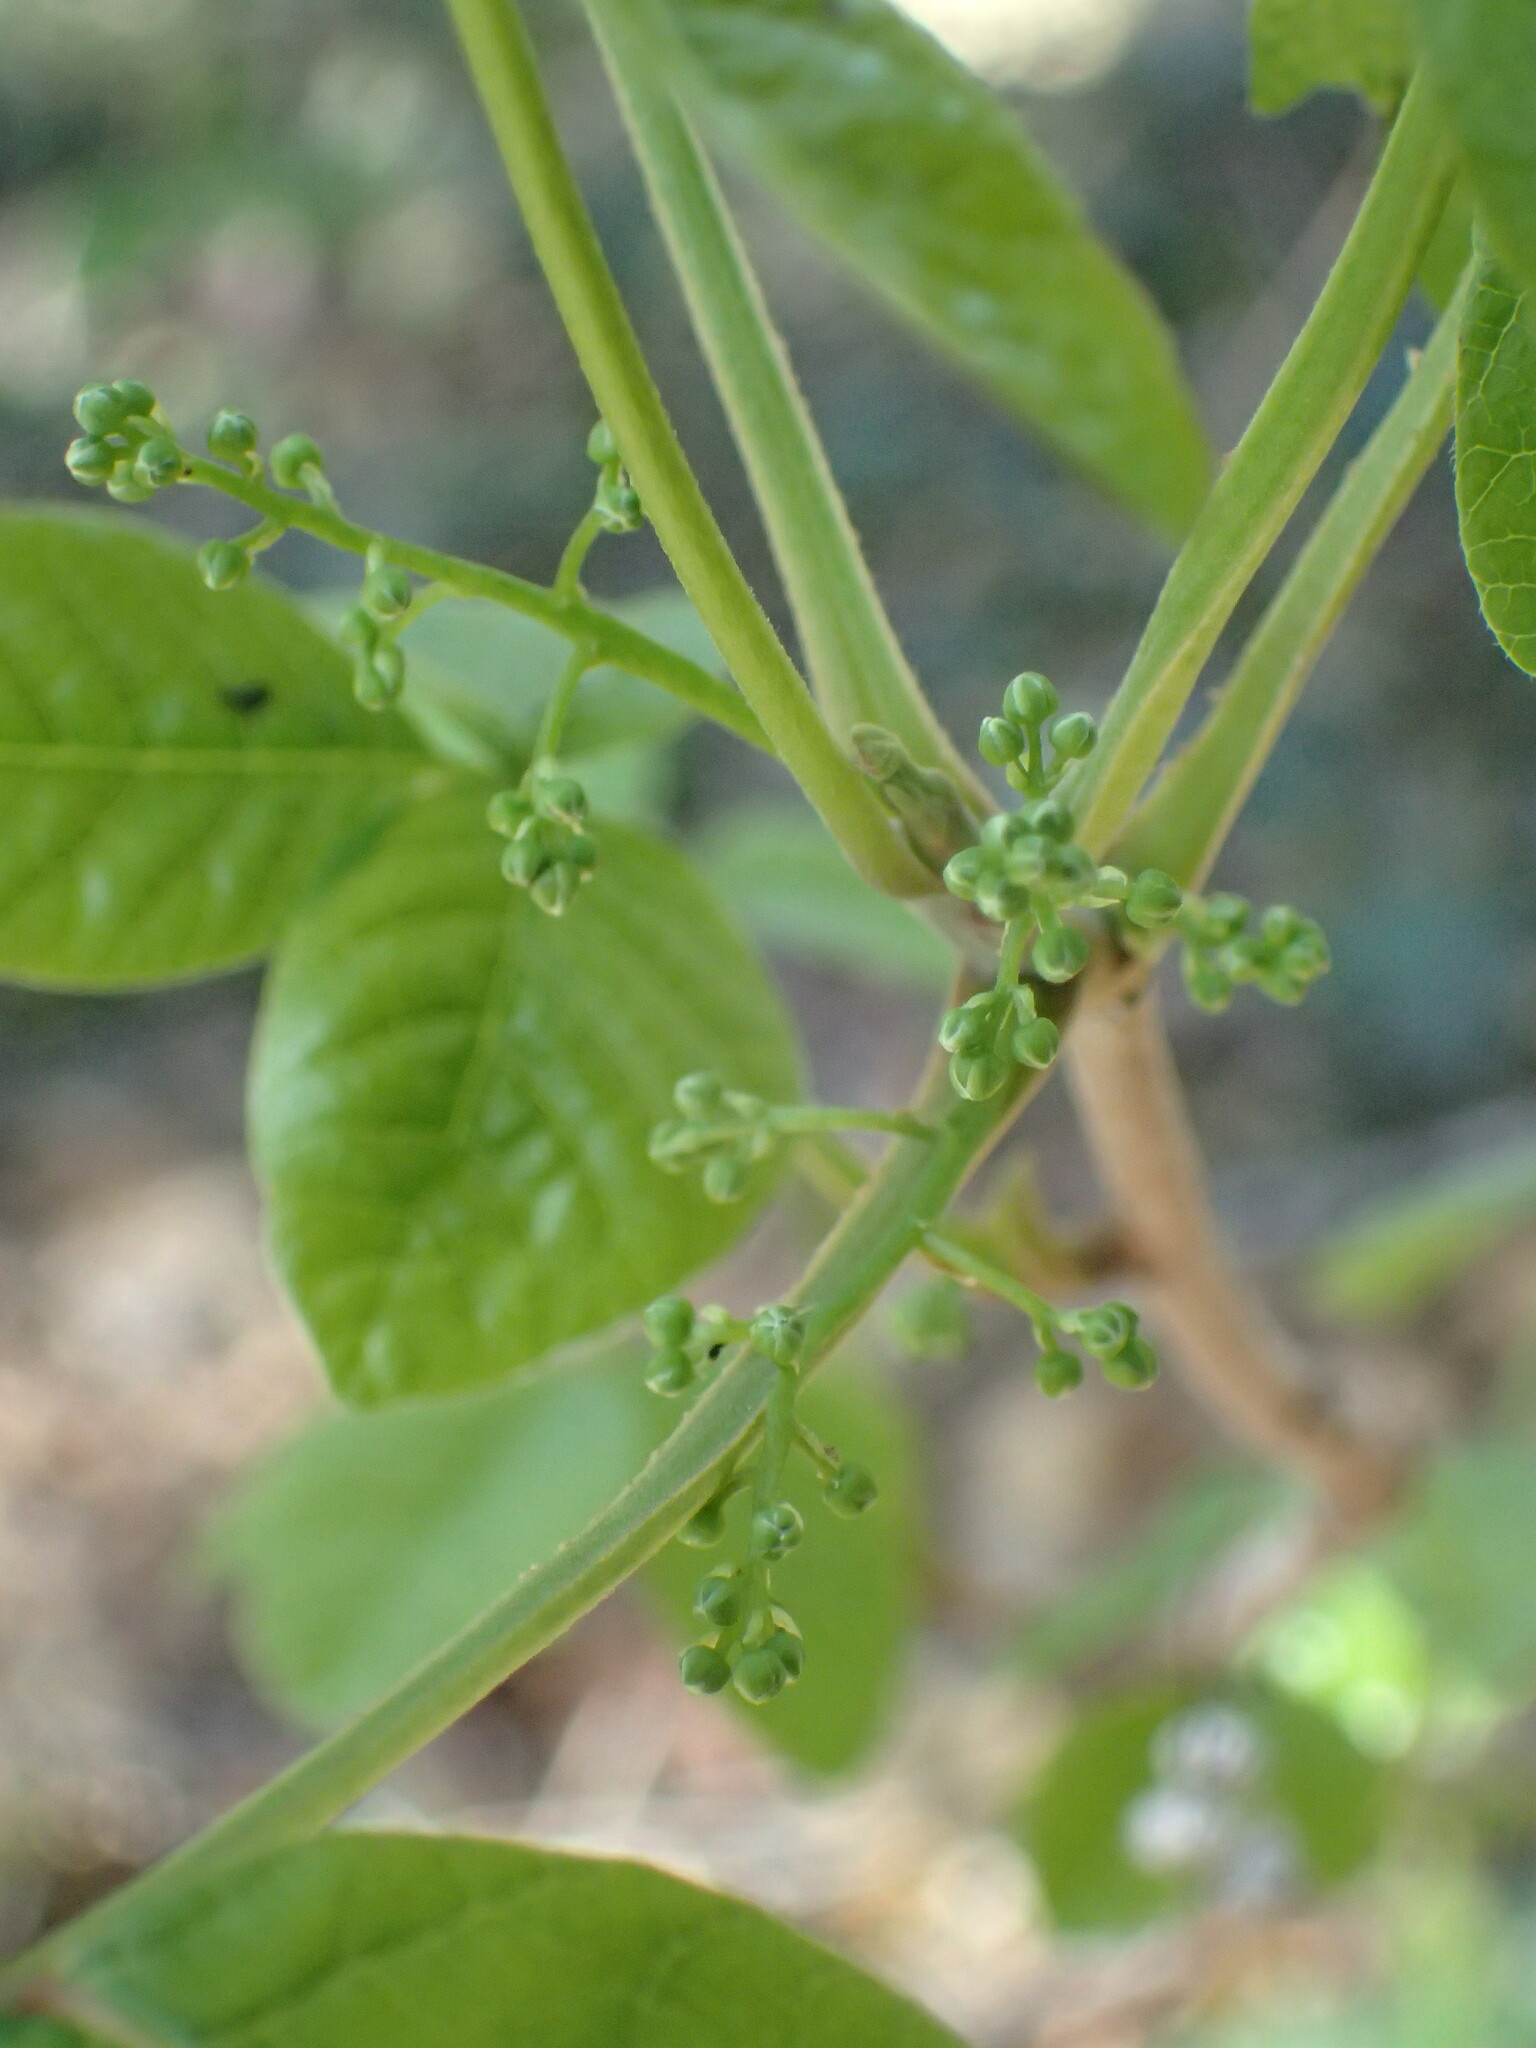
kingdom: Plantae
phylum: Tracheophyta
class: Magnoliopsida
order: Sapindales
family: Anacardiaceae
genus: Toxicodendron
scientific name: Toxicodendron diversilobum
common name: Pacific poison-oak
